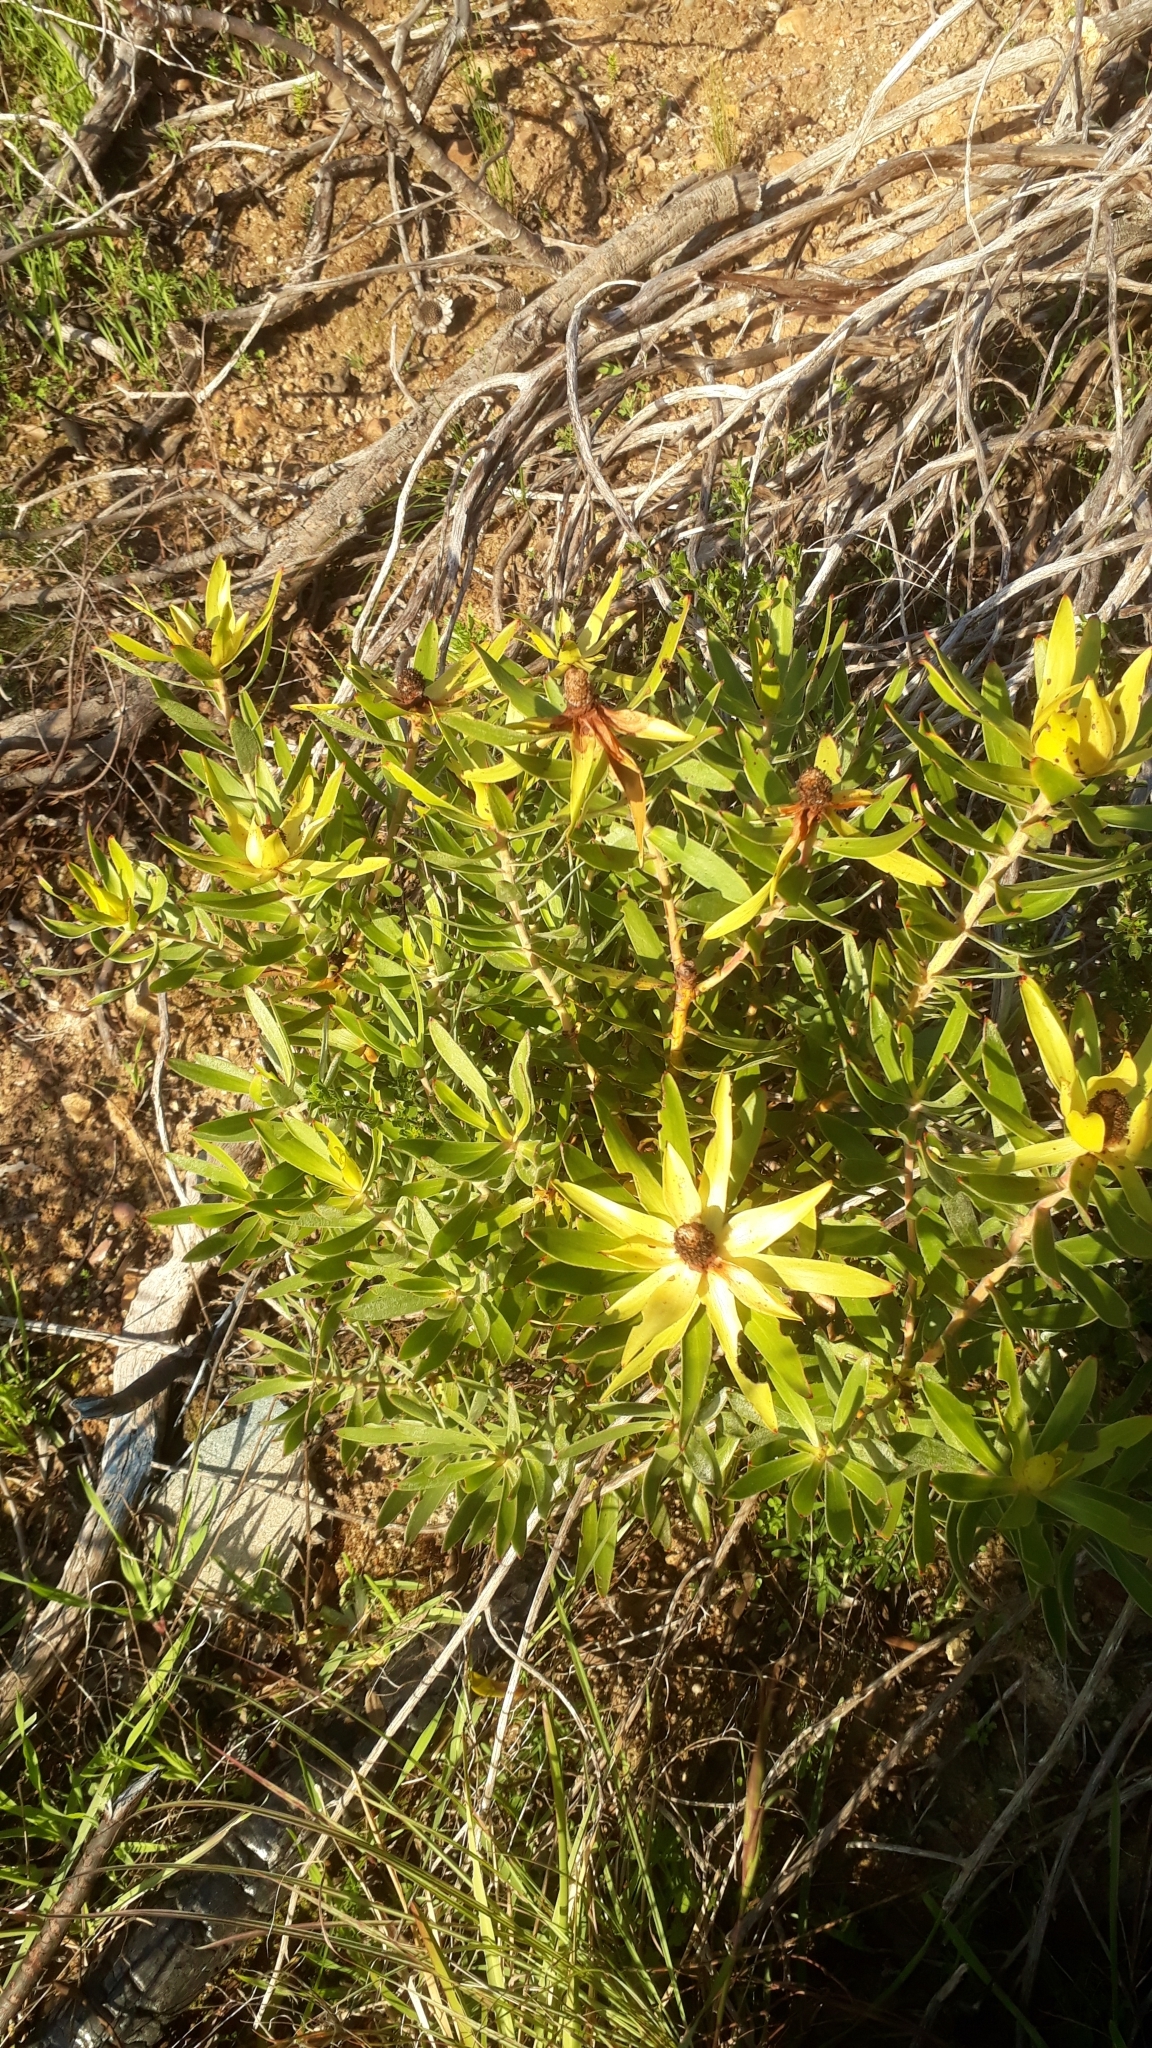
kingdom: Plantae
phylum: Tracheophyta
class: Magnoliopsida
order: Proteales
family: Proteaceae
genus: Leucadendron
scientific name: Leucadendron laureolum
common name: Golden sunshinebush
